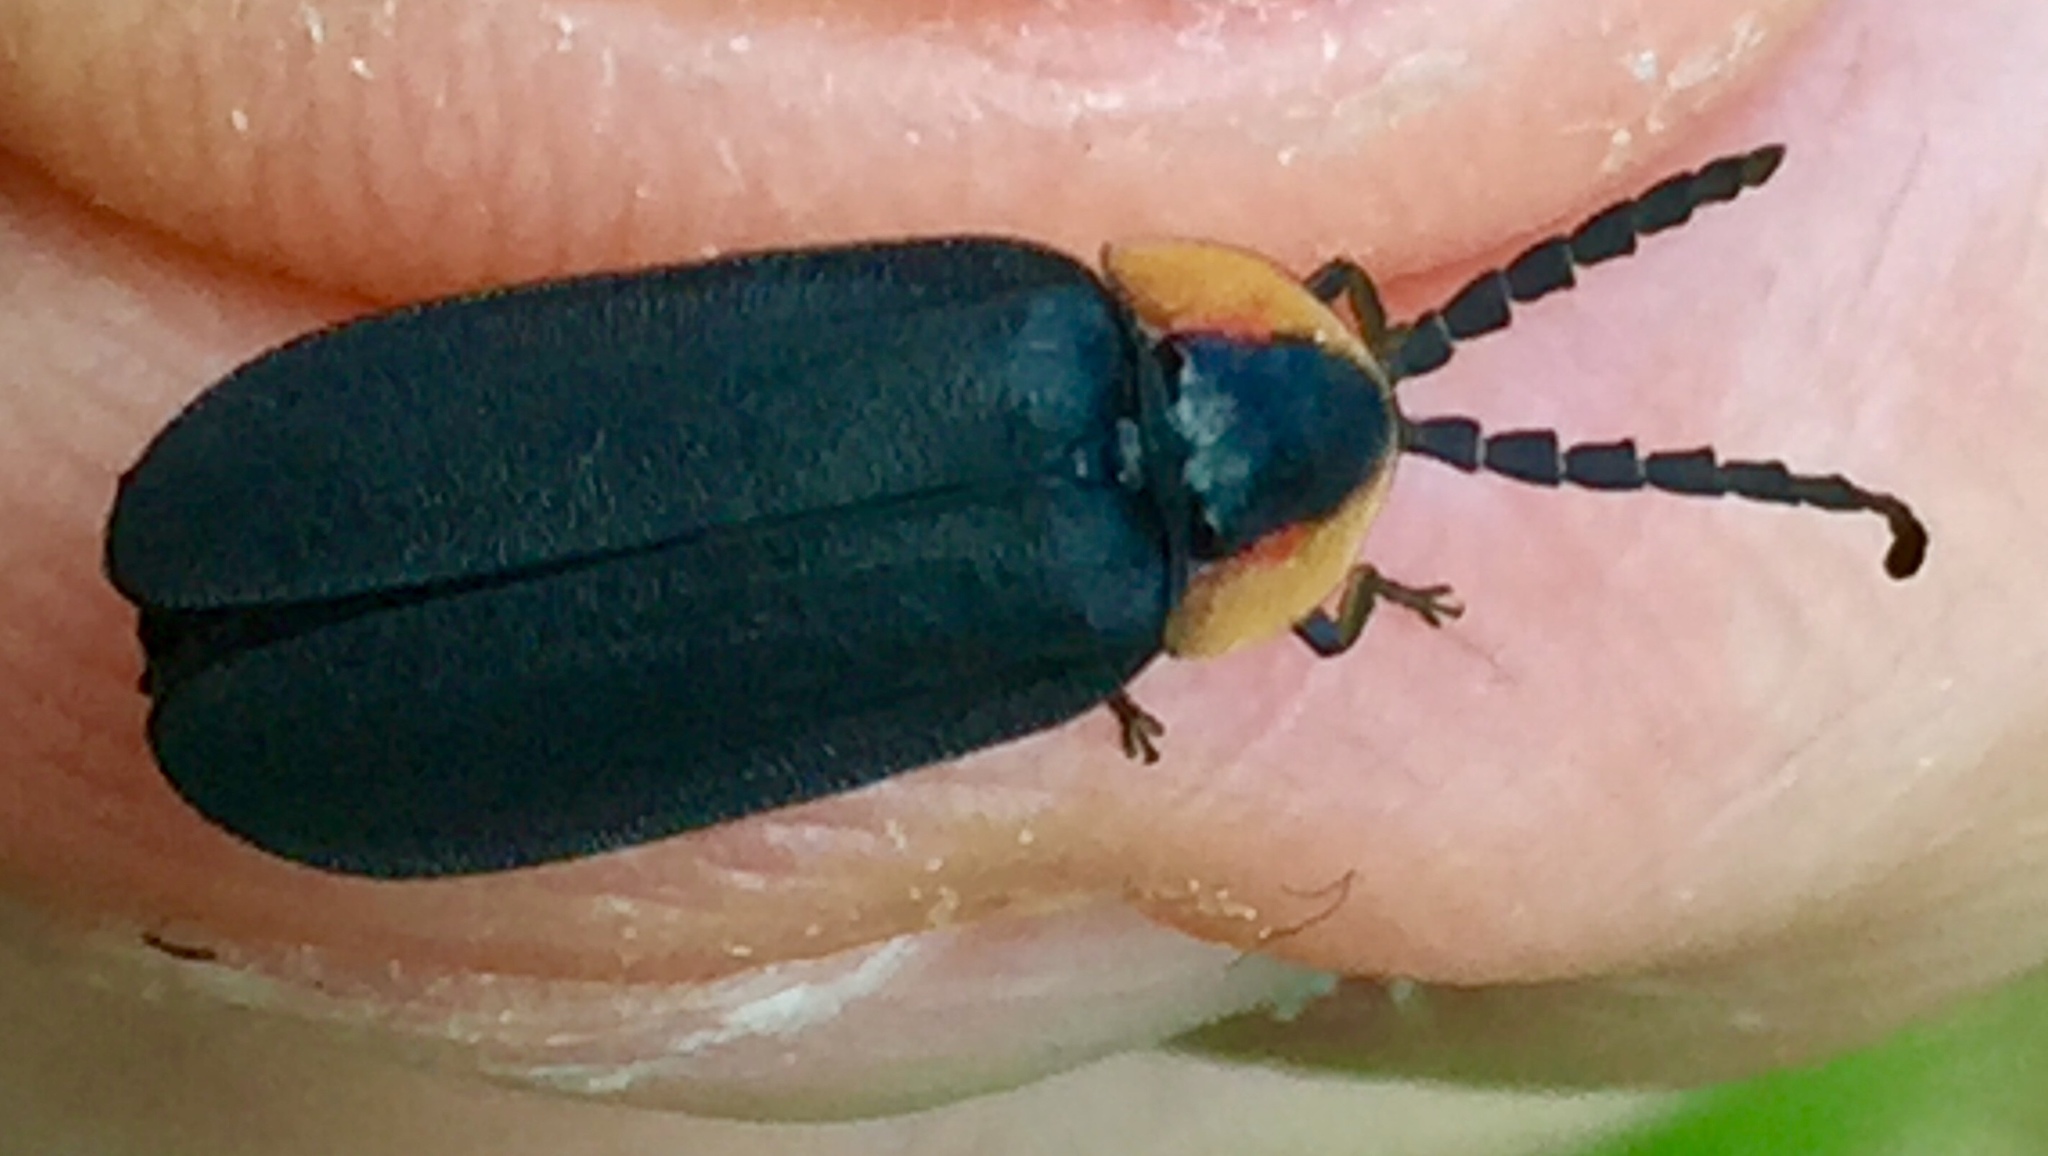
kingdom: Animalia
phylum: Arthropoda
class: Insecta
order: Coleoptera
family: Lampyridae
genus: Lucidota
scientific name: Lucidota atra
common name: Black firefly
